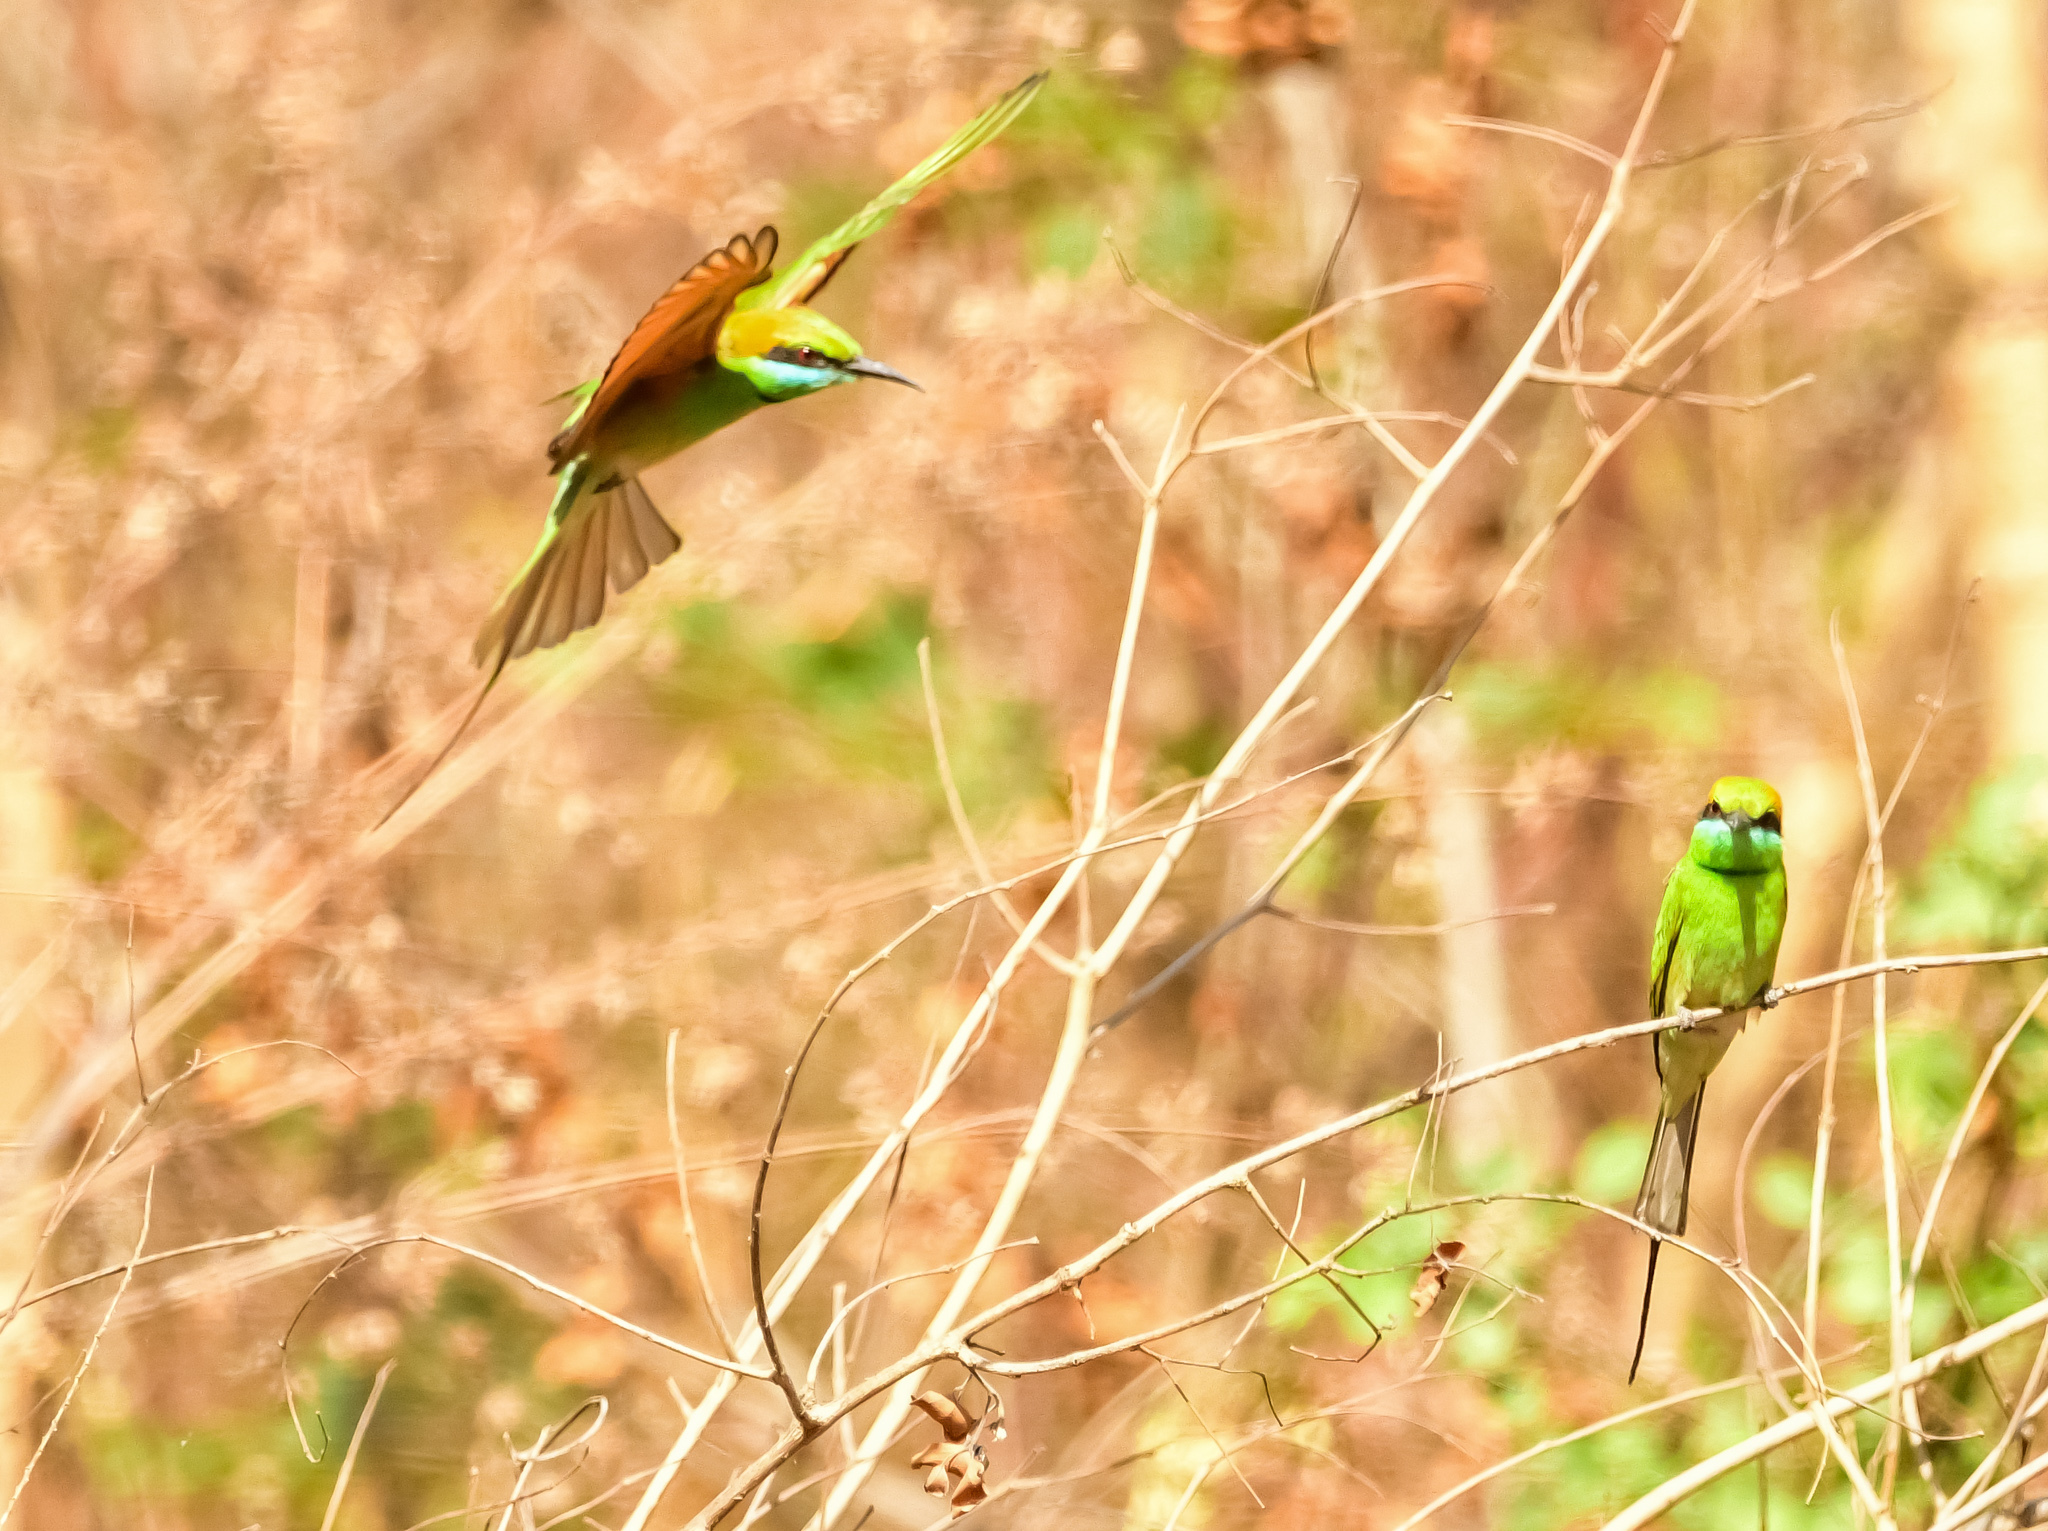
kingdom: Animalia
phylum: Chordata
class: Aves
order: Coraciiformes
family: Meropidae
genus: Merops
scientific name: Merops orientalis
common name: Green bee-eater
